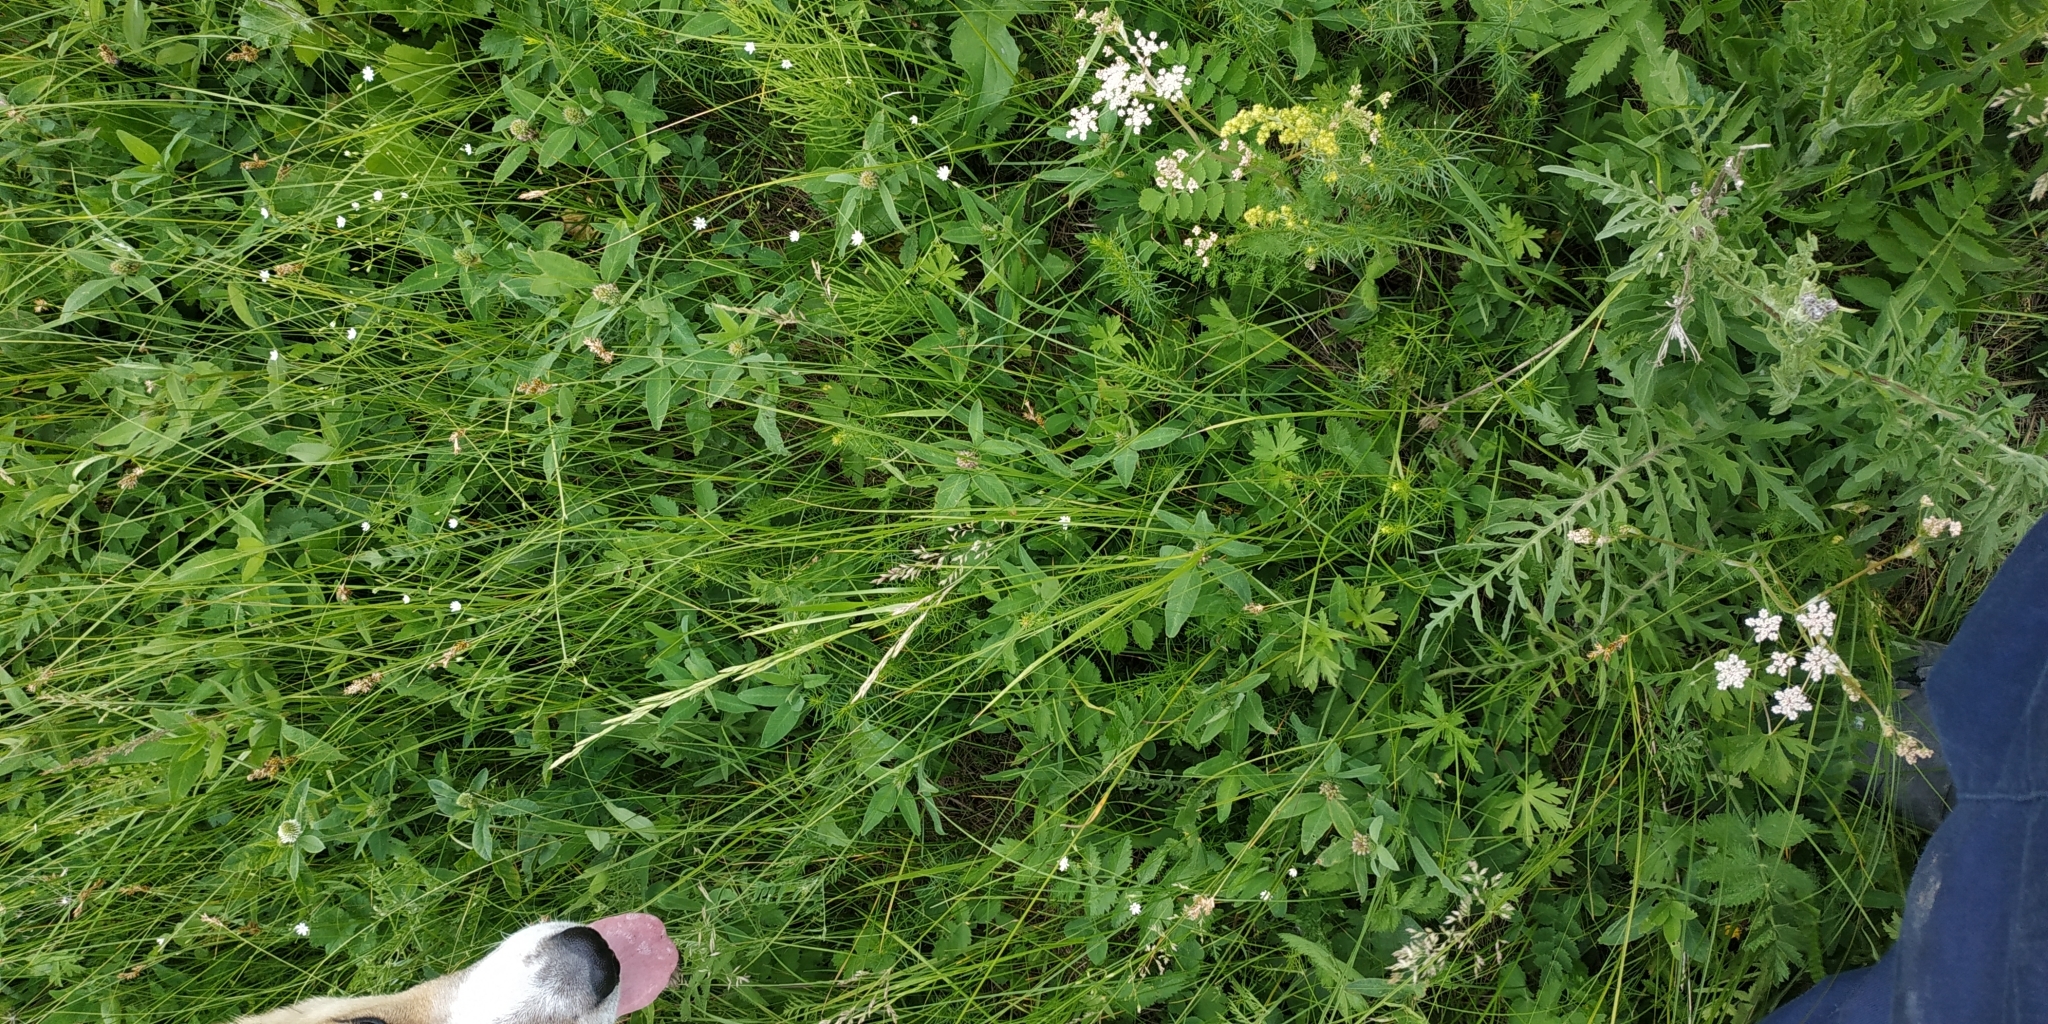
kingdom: Plantae
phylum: Tracheophyta
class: Liliopsida
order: Poales
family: Cyperaceae
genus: Carex
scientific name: Carex leporina
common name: Oval sedge
